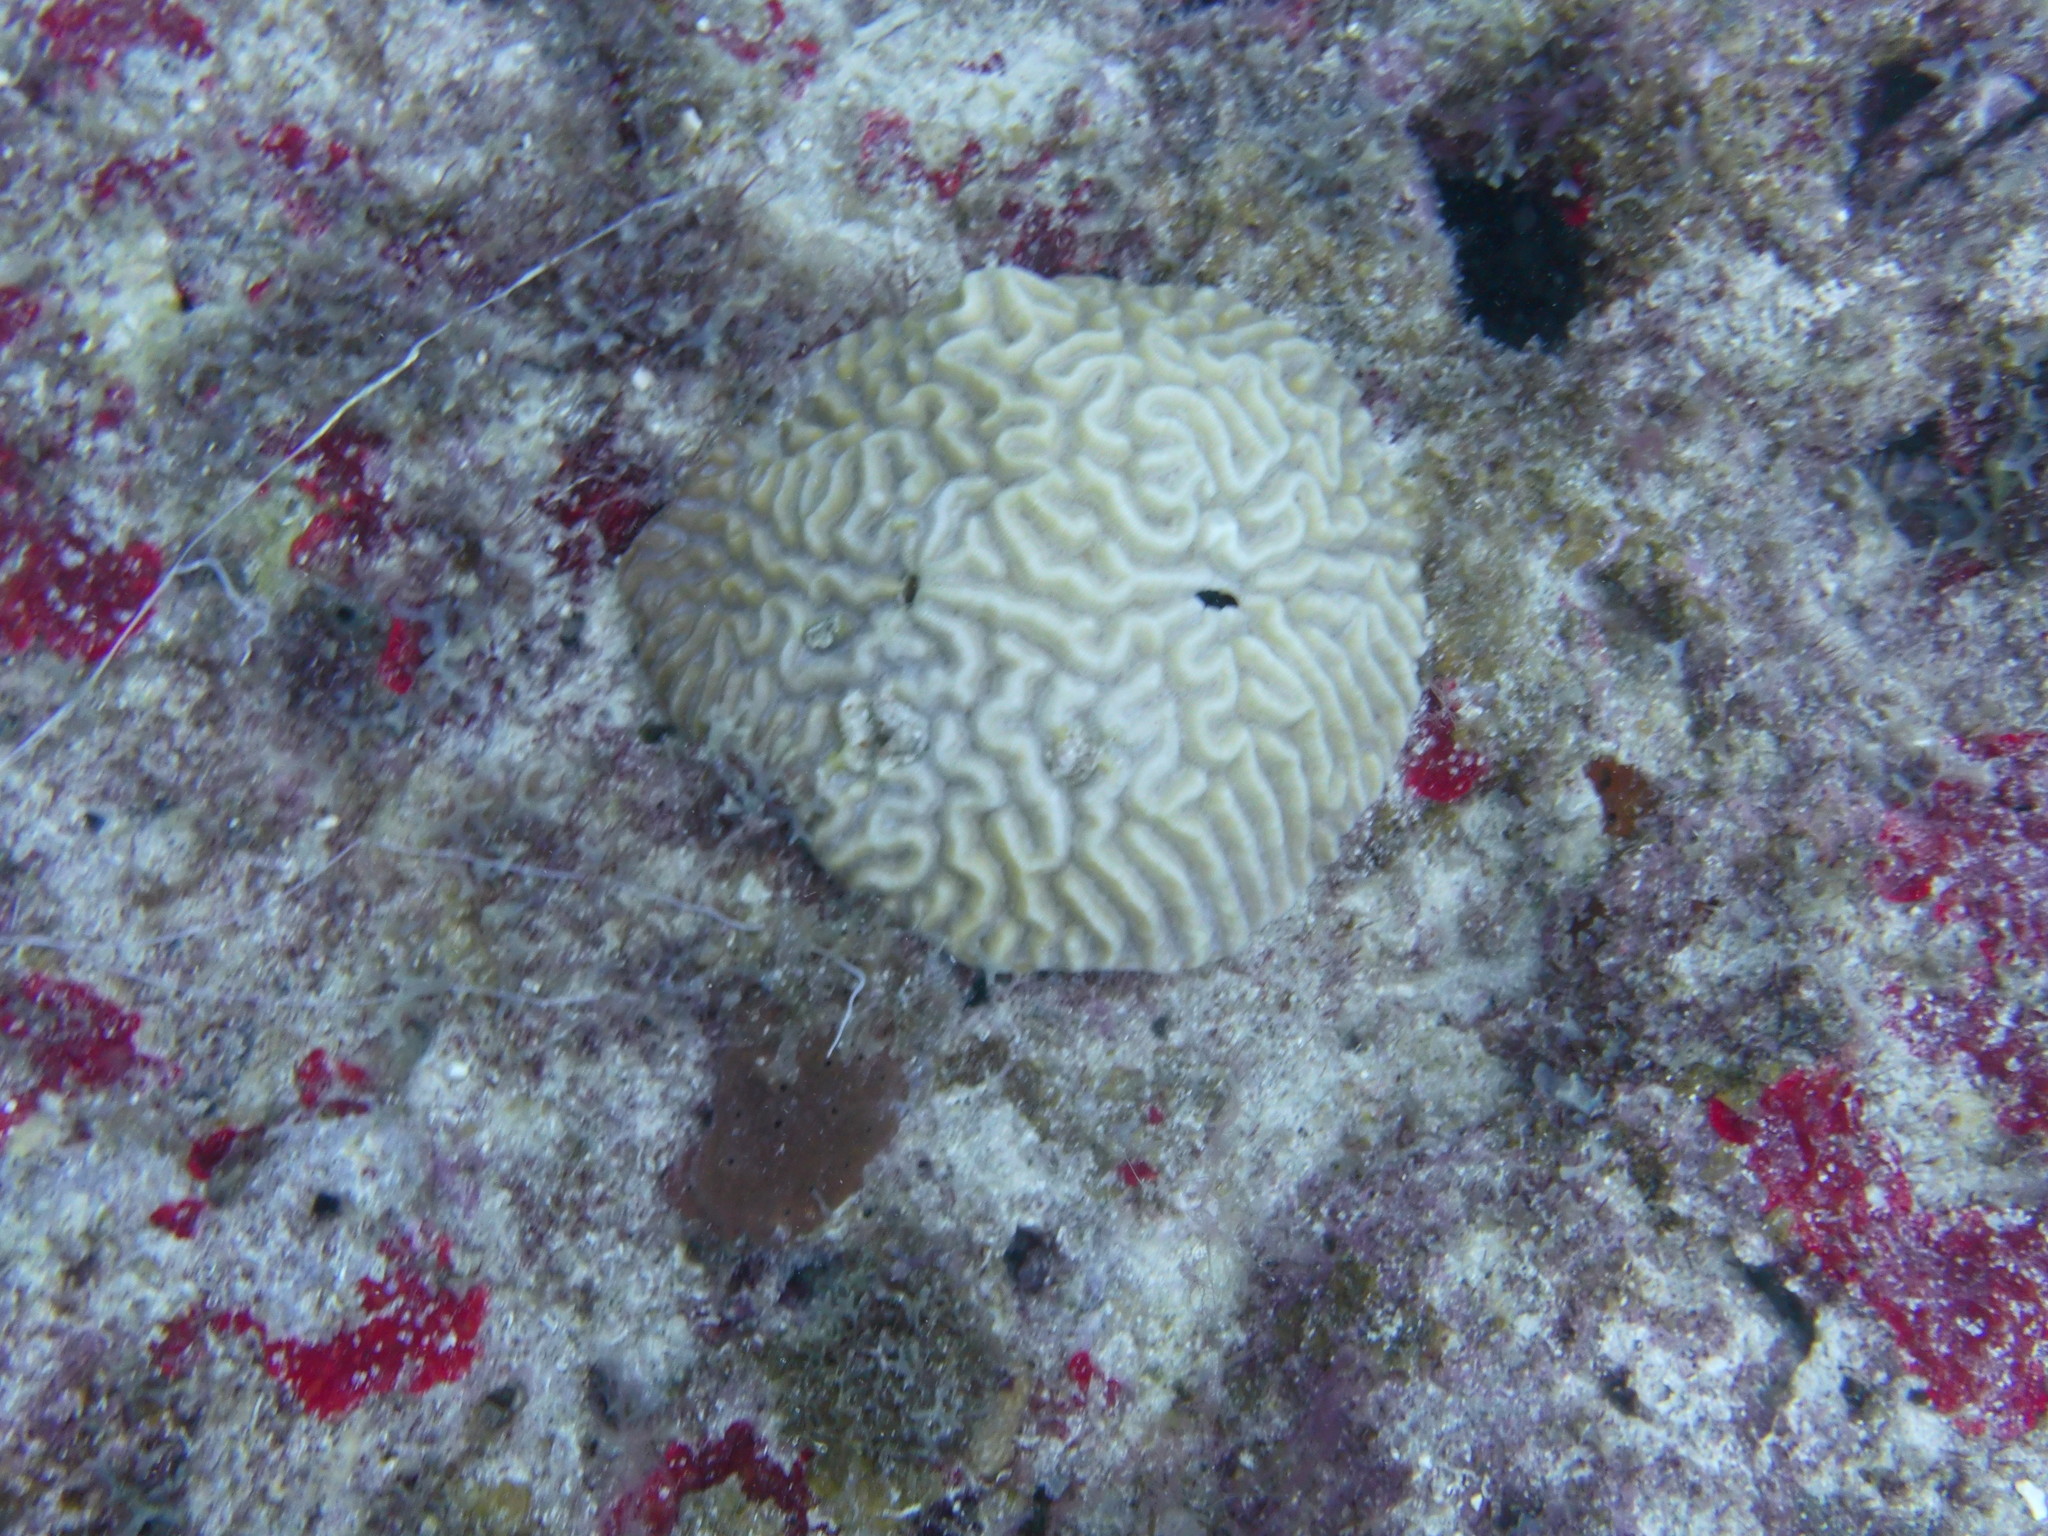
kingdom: Animalia
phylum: Cnidaria
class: Anthozoa
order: Scleractinia
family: Faviidae
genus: Pseudodiploria
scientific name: Pseudodiploria strigosa
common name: Symmetrical brain coral
